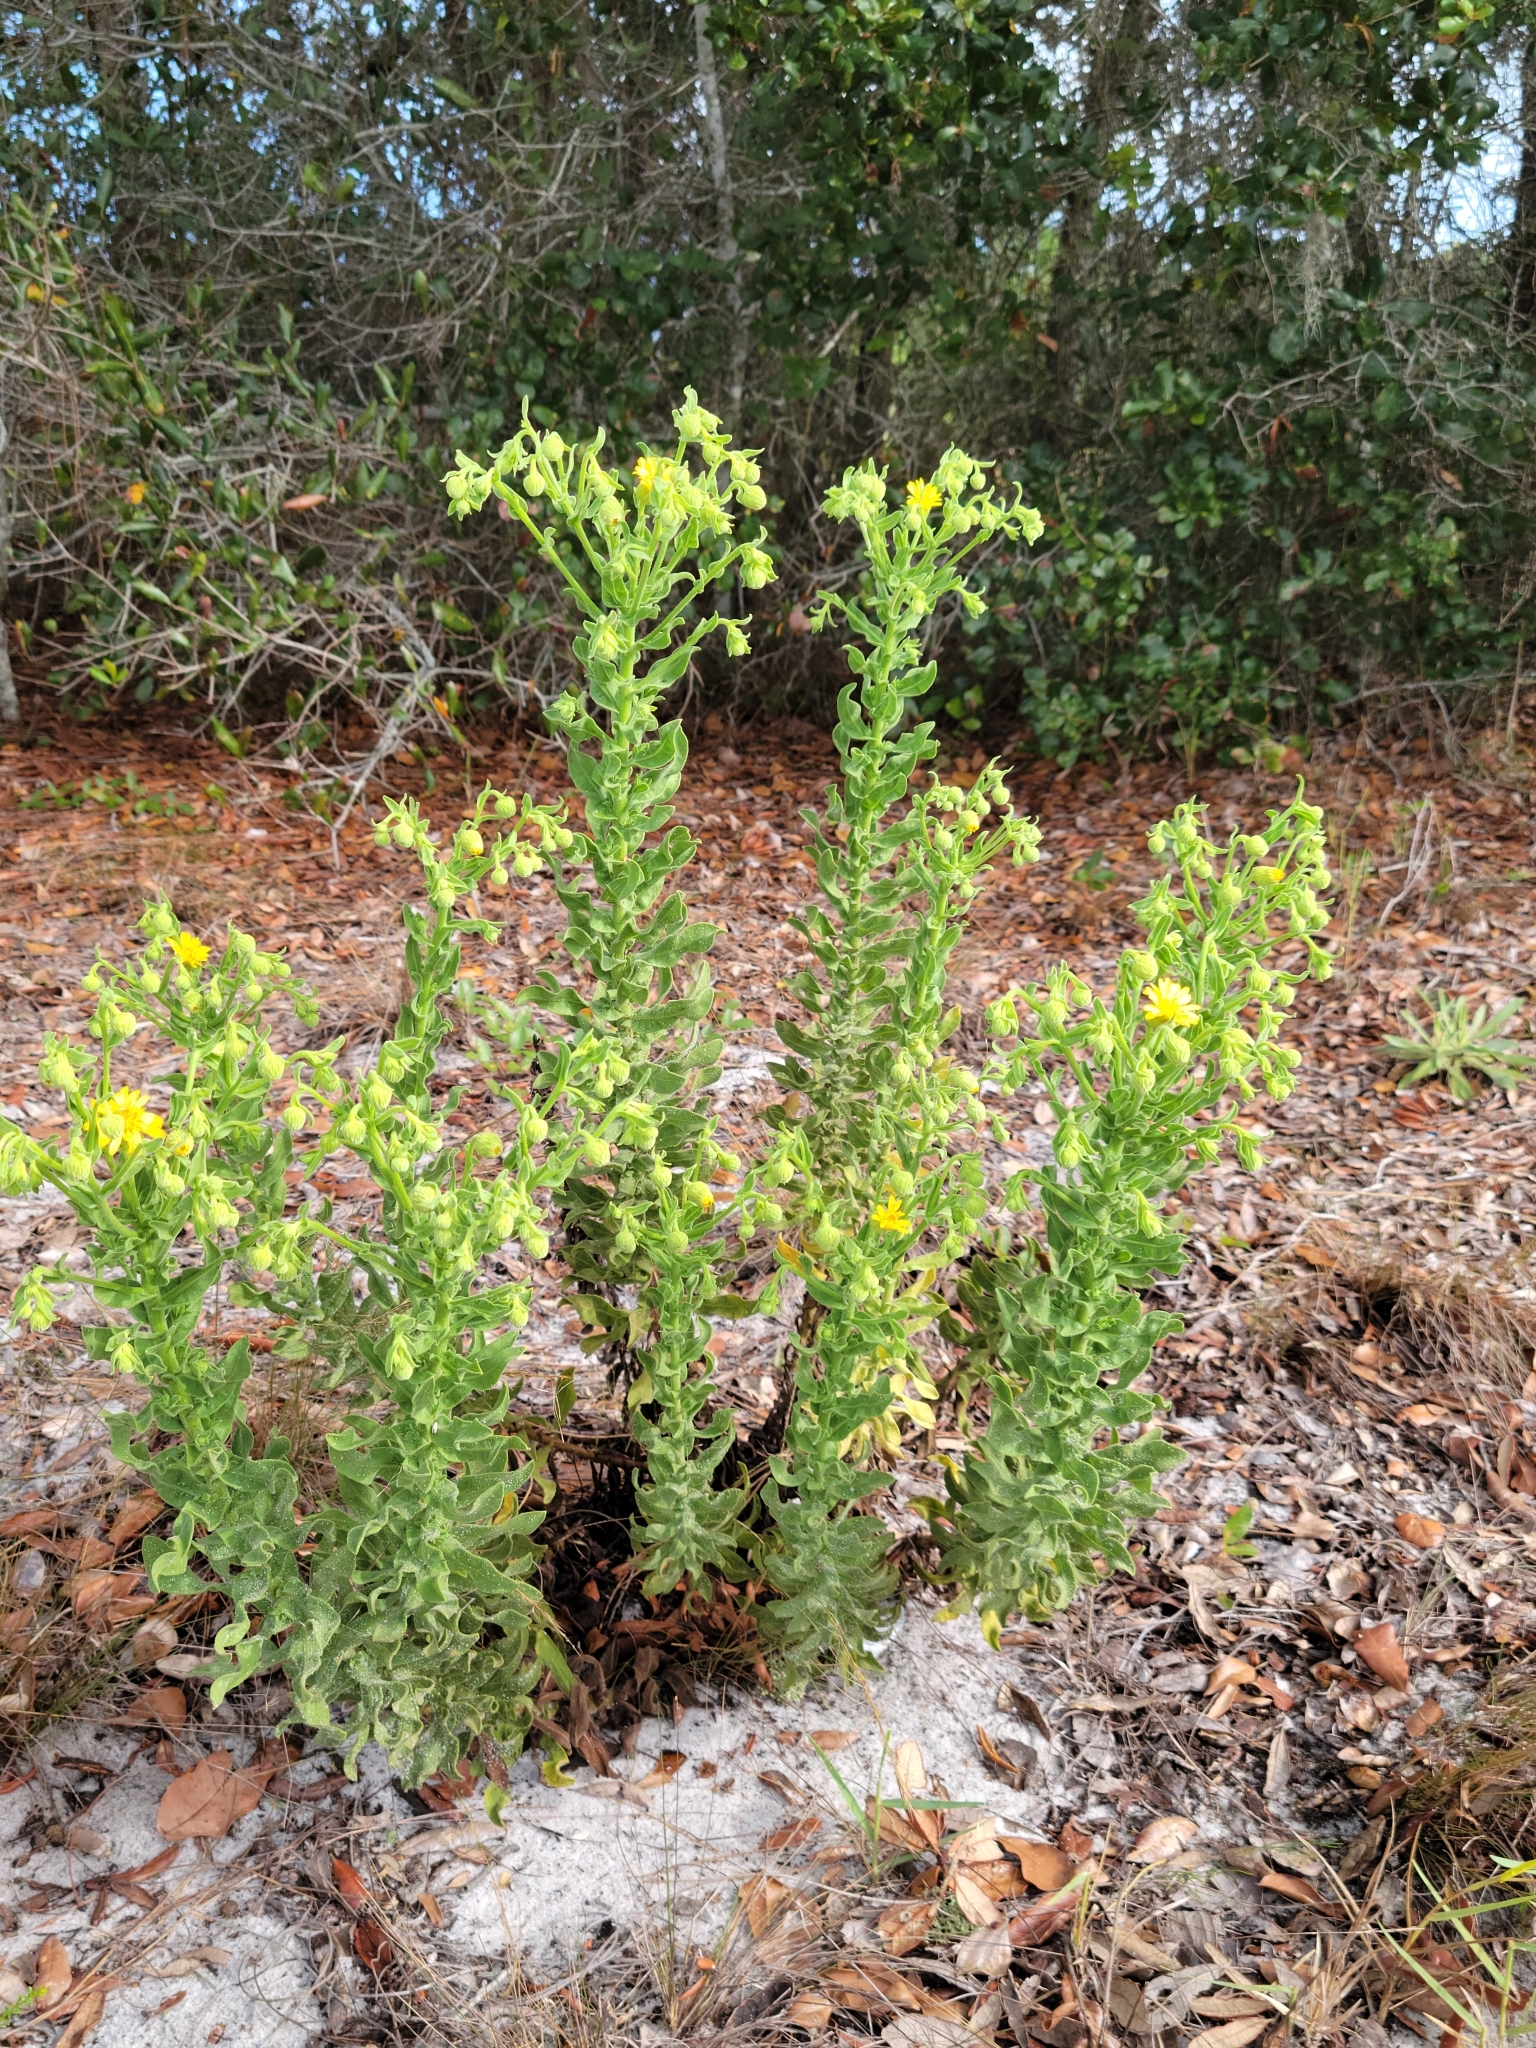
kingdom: Plantae
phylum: Tracheophyta
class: Magnoliopsida
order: Asterales
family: Asteraceae
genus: Chrysopsis
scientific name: Chrysopsis delaneyi
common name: Delaney's goldenaster
